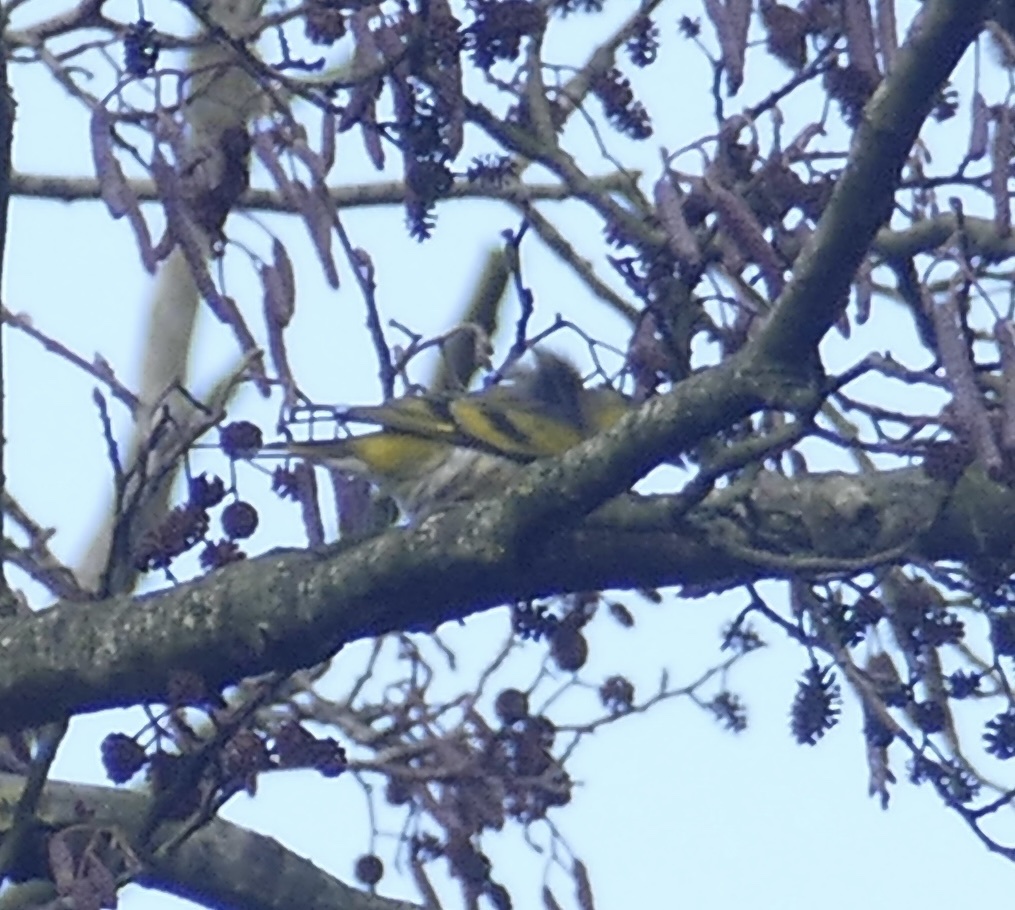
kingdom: Animalia
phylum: Chordata
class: Aves
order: Passeriformes
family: Fringillidae
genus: Spinus
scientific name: Spinus spinus
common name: Eurasian siskin
